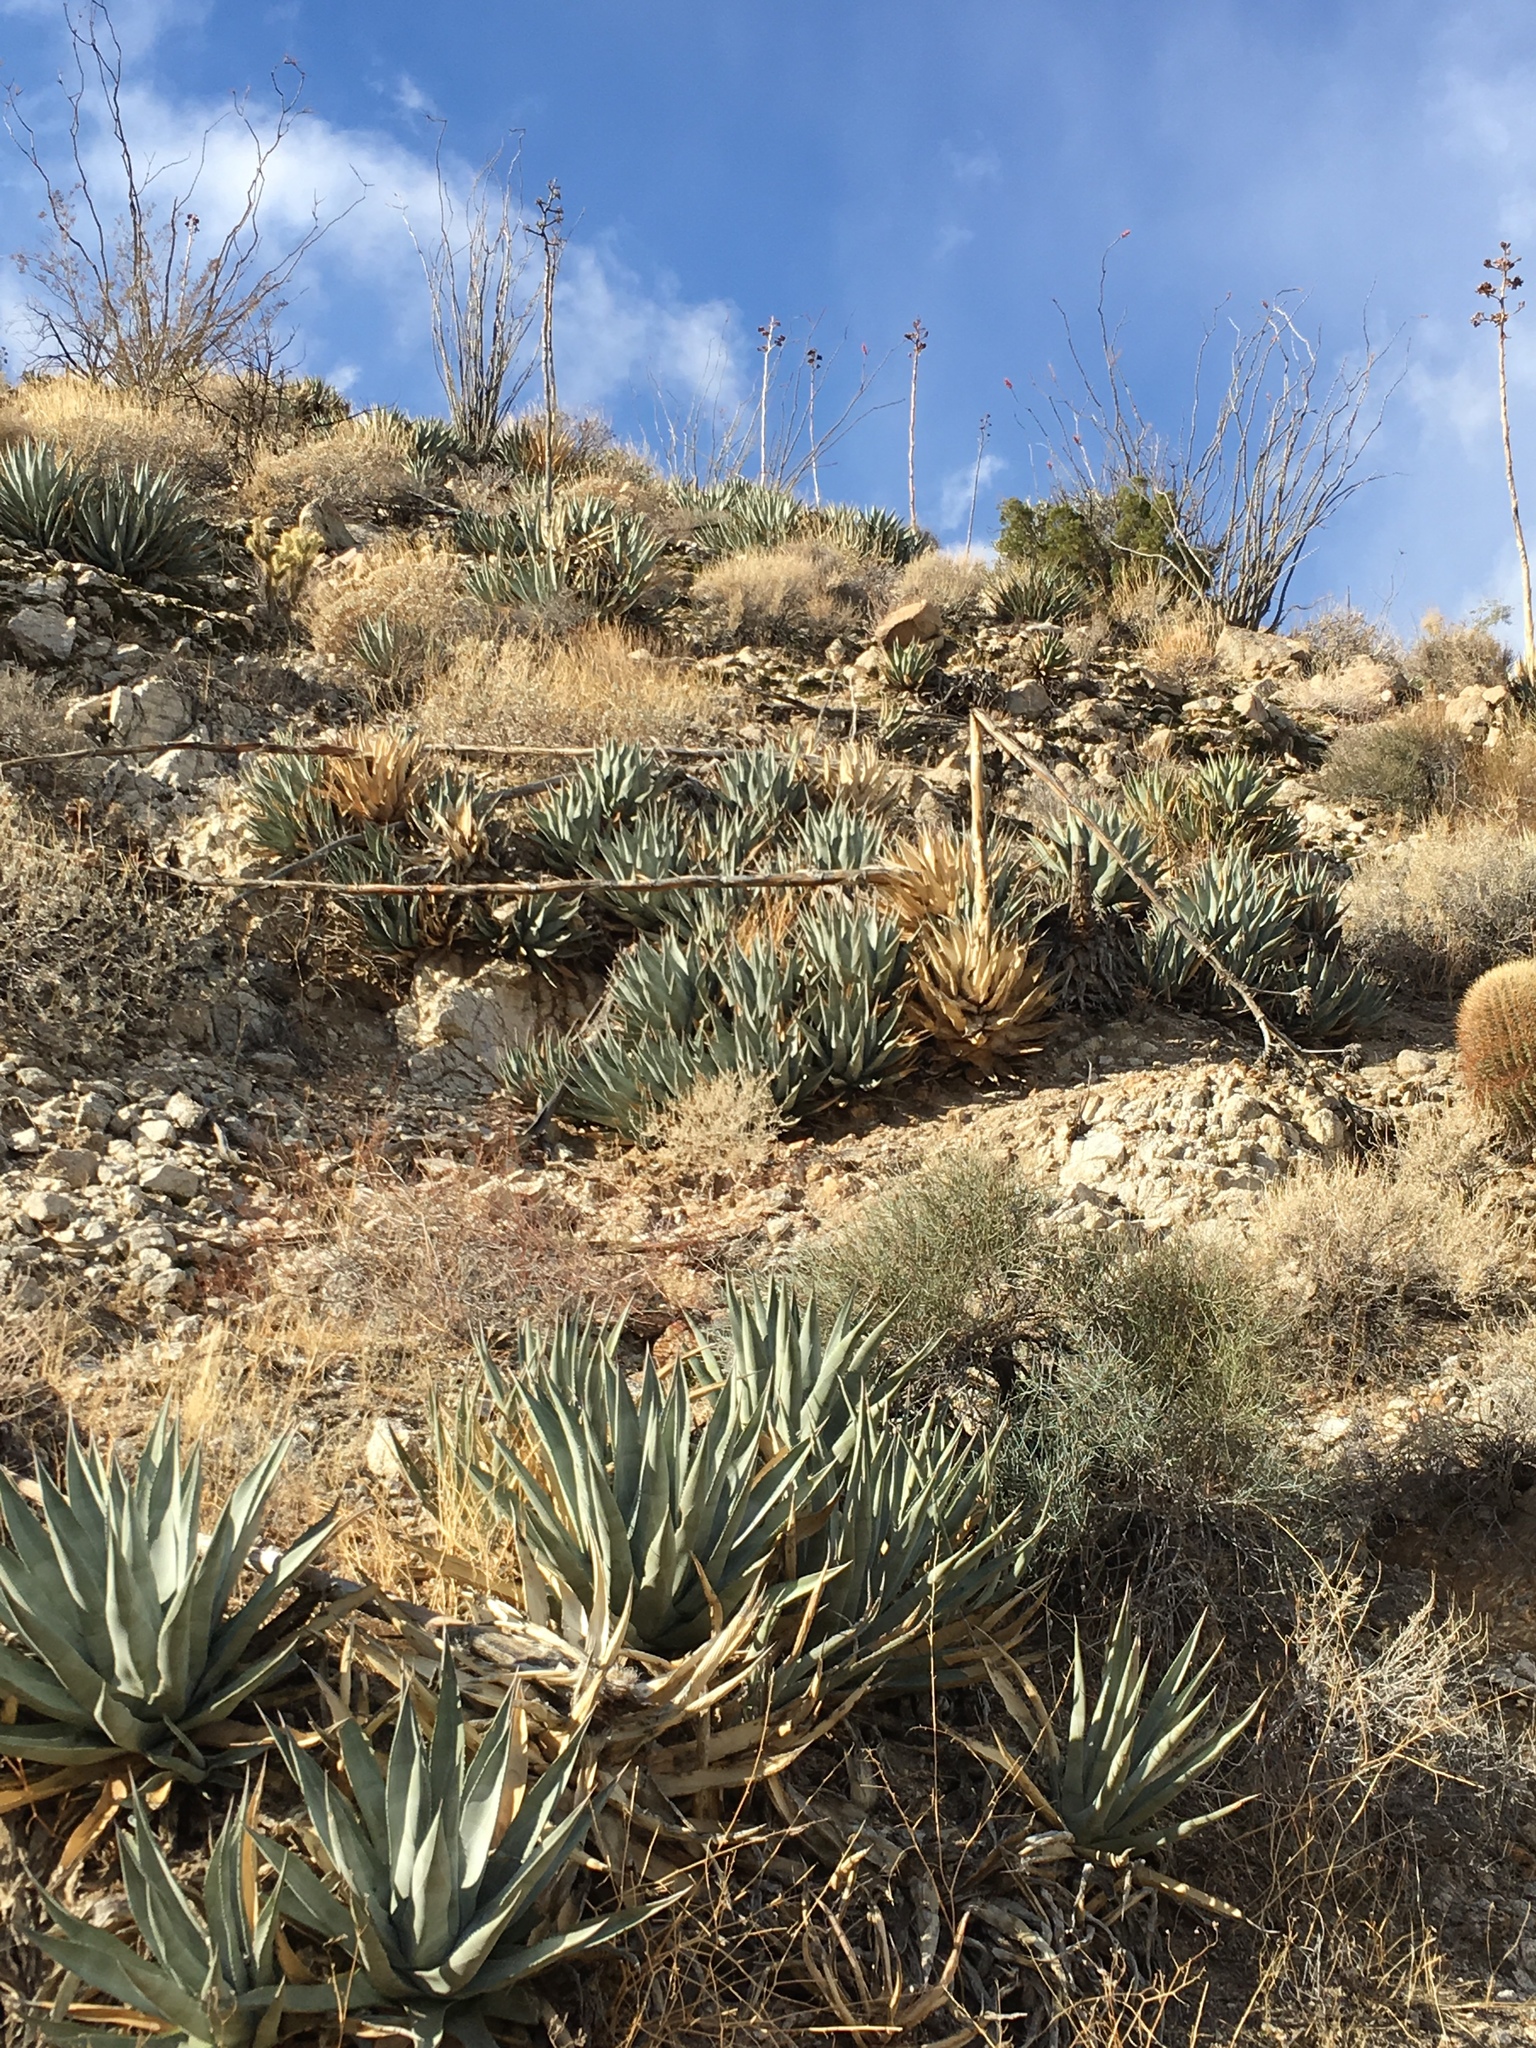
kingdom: Plantae
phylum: Tracheophyta
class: Liliopsida
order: Asparagales
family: Asparagaceae
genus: Agave
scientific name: Agave deserti
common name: Desert agave
